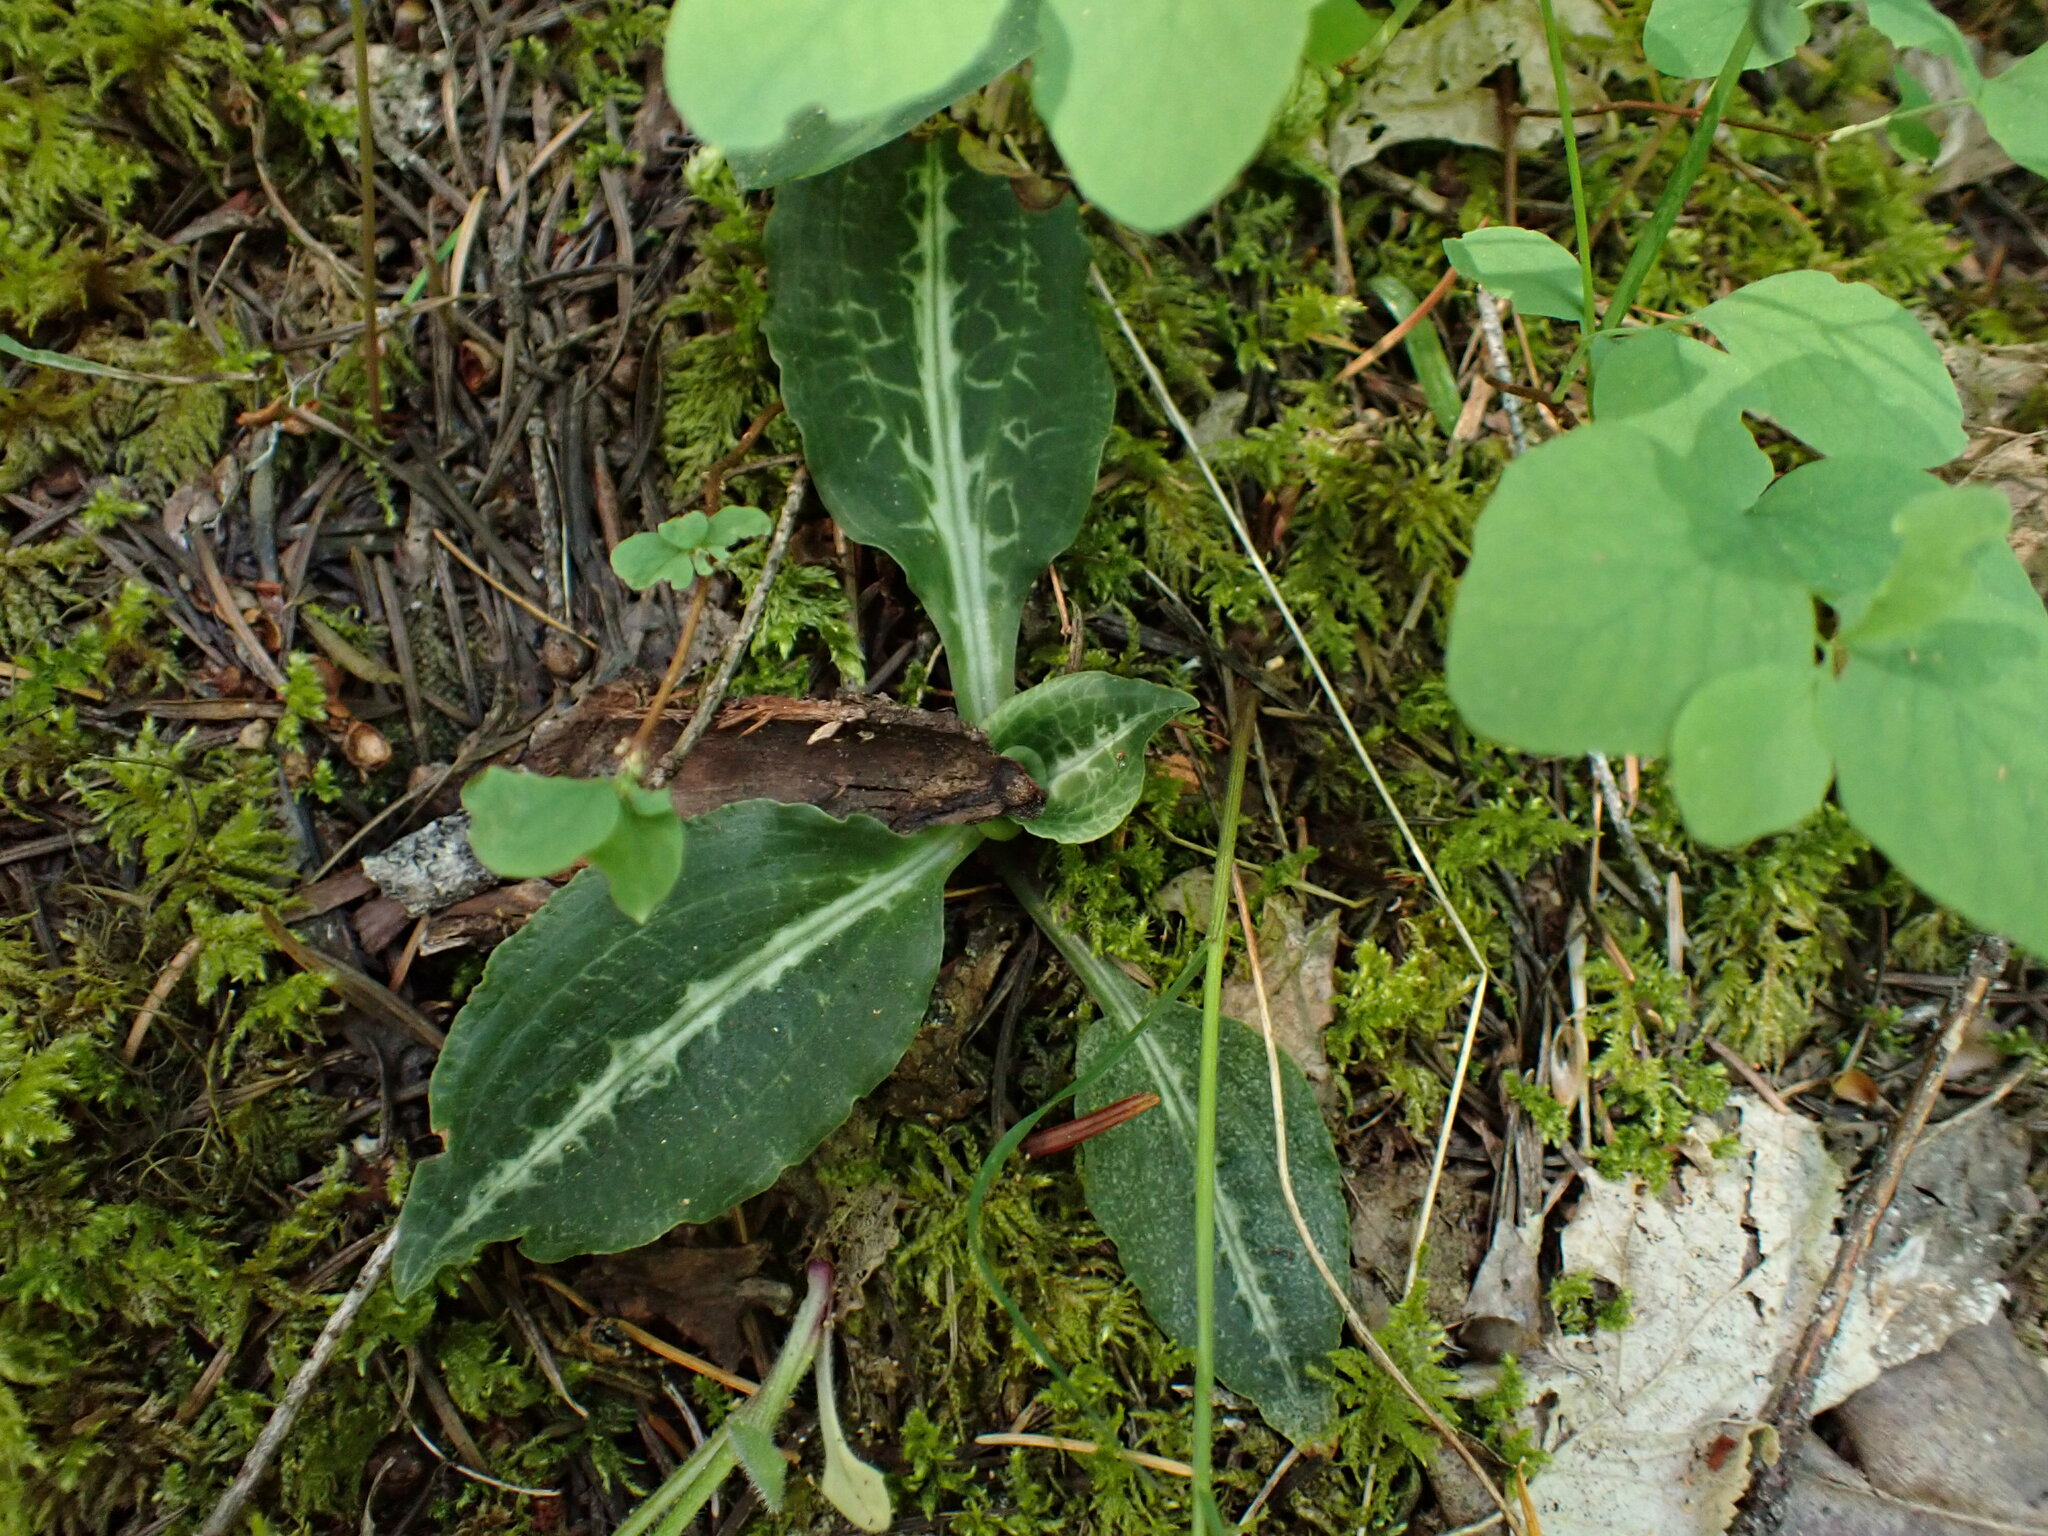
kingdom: Plantae
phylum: Tracheophyta
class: Liliopsida
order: Asparagales
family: Orchidaceae
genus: Goodyera
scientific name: Goodyera oblongifolia
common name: Giant rattlesnake-plantain
